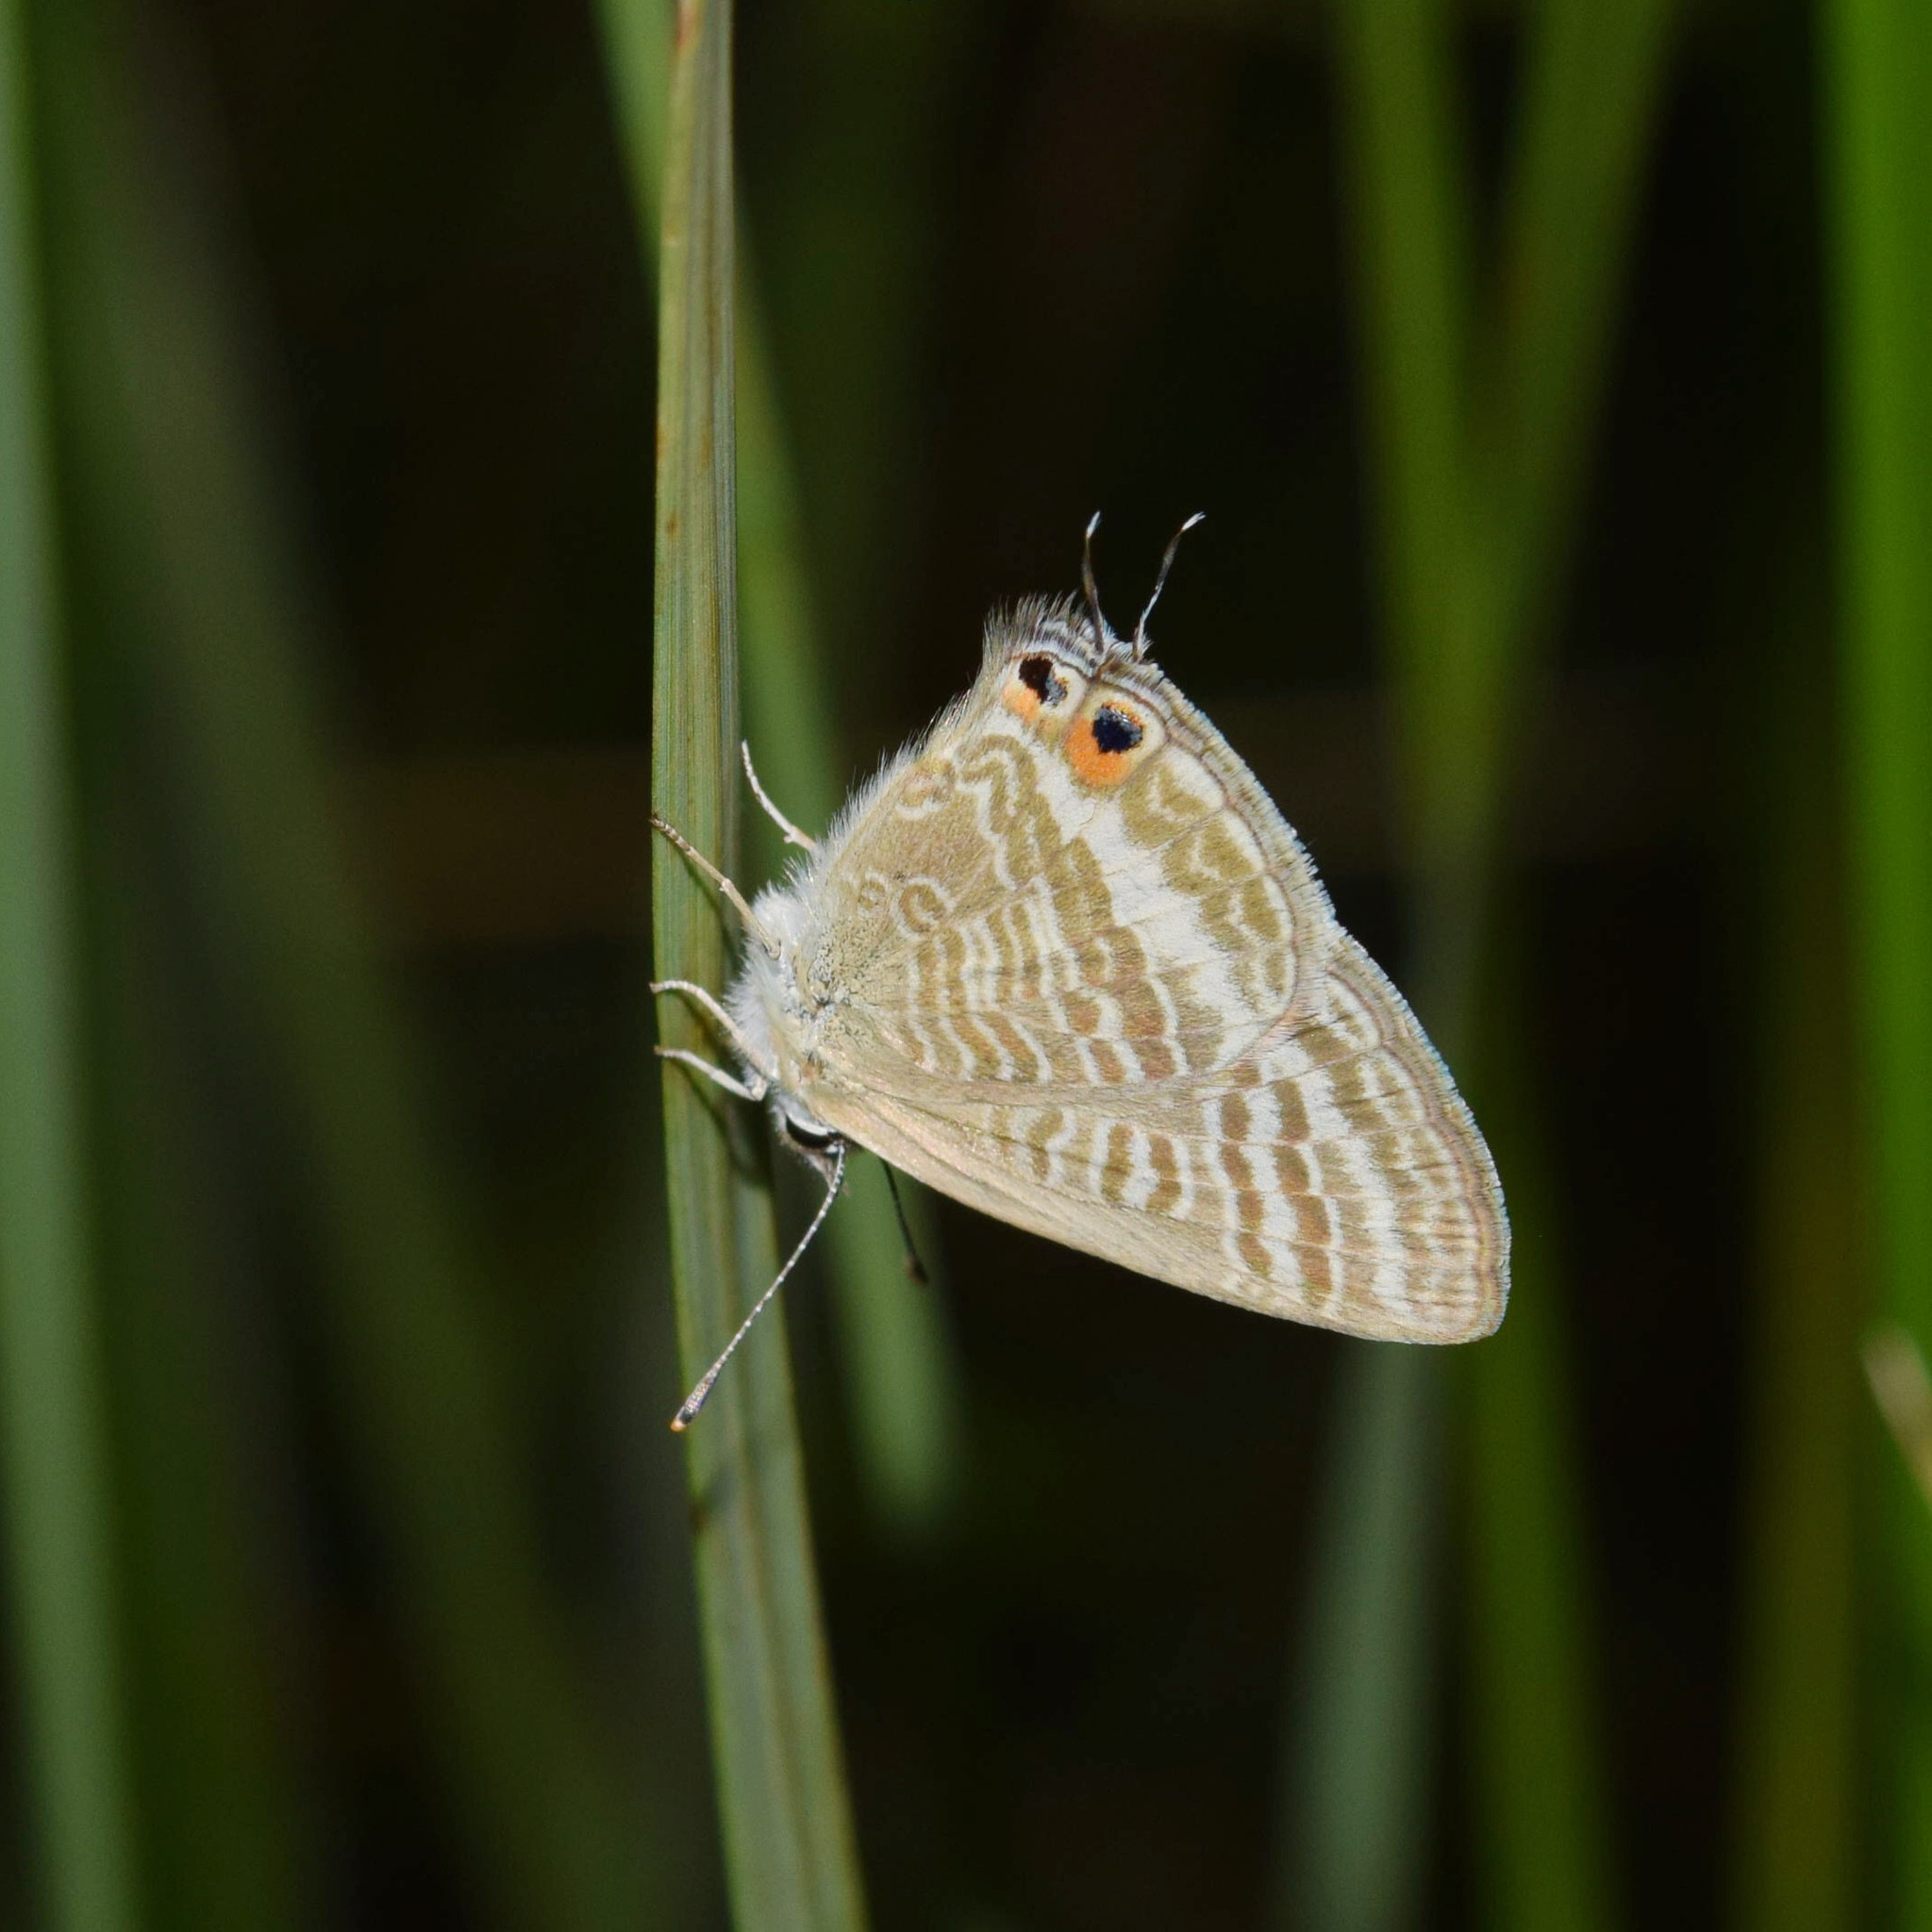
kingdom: Animalia
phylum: Arthropoda
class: Insecta
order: Lepidoptera
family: Lycaenidae
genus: Lampides
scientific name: Lampides boeticus
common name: Long-tailed blue
